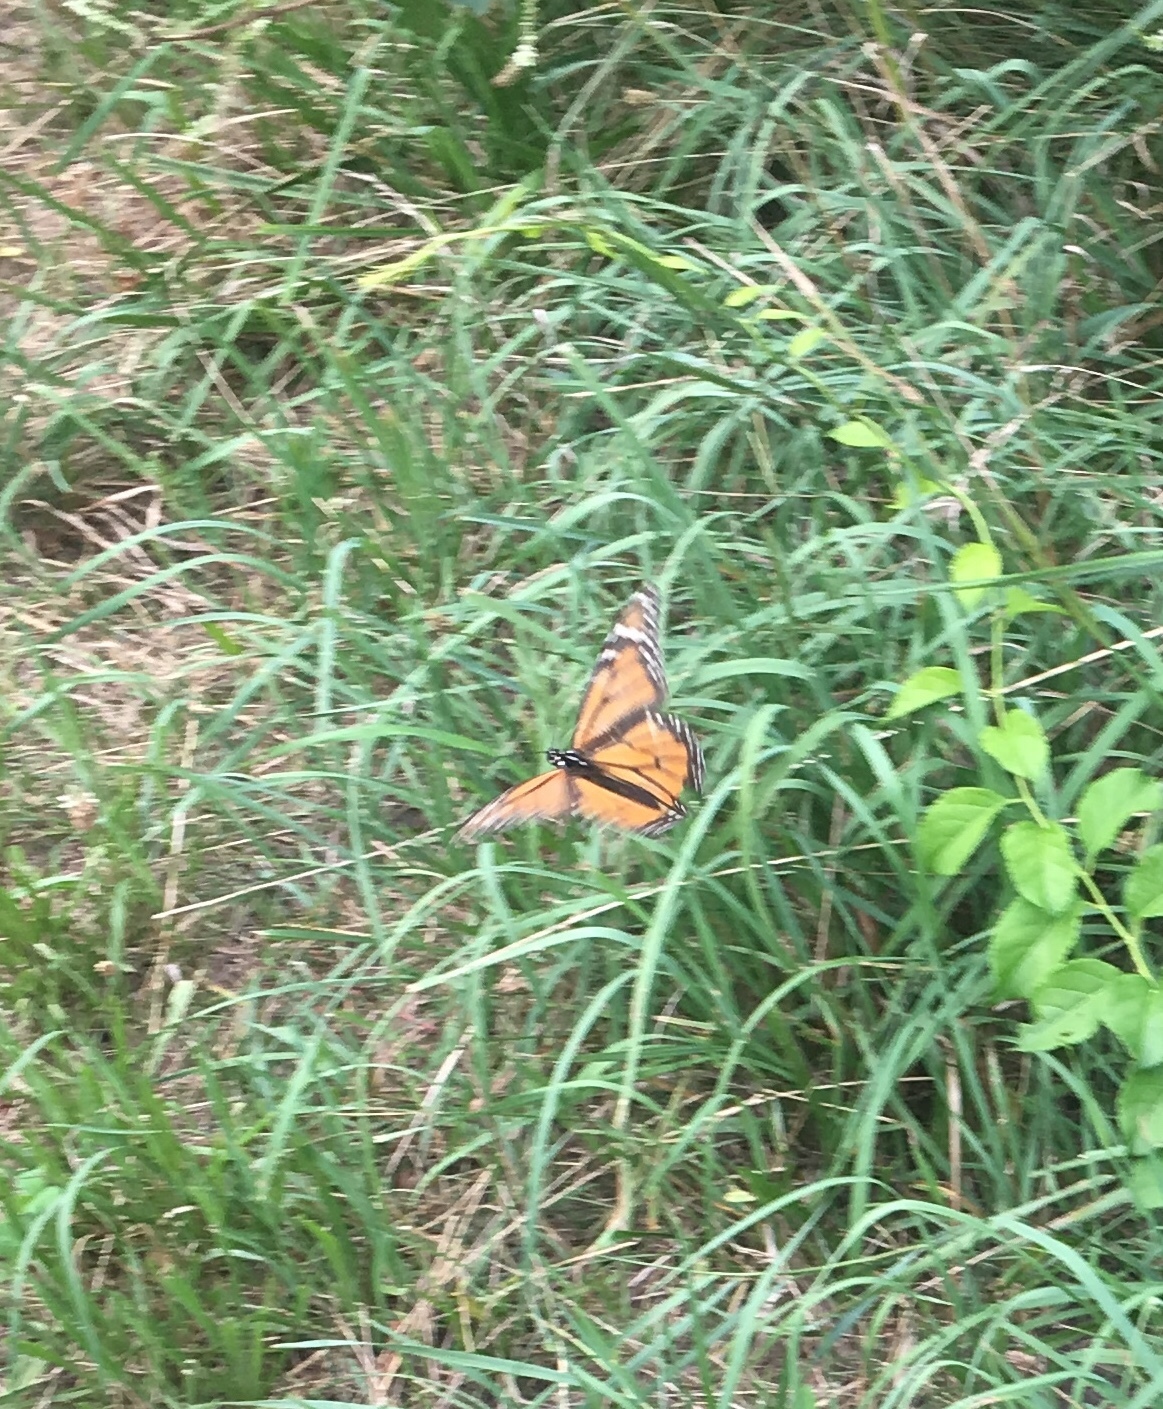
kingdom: Animalia
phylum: Arthropoda
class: Insecta
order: Lepidoptera
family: Nymphalidae
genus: Danaus
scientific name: Danaus plexippus
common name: Monarch
